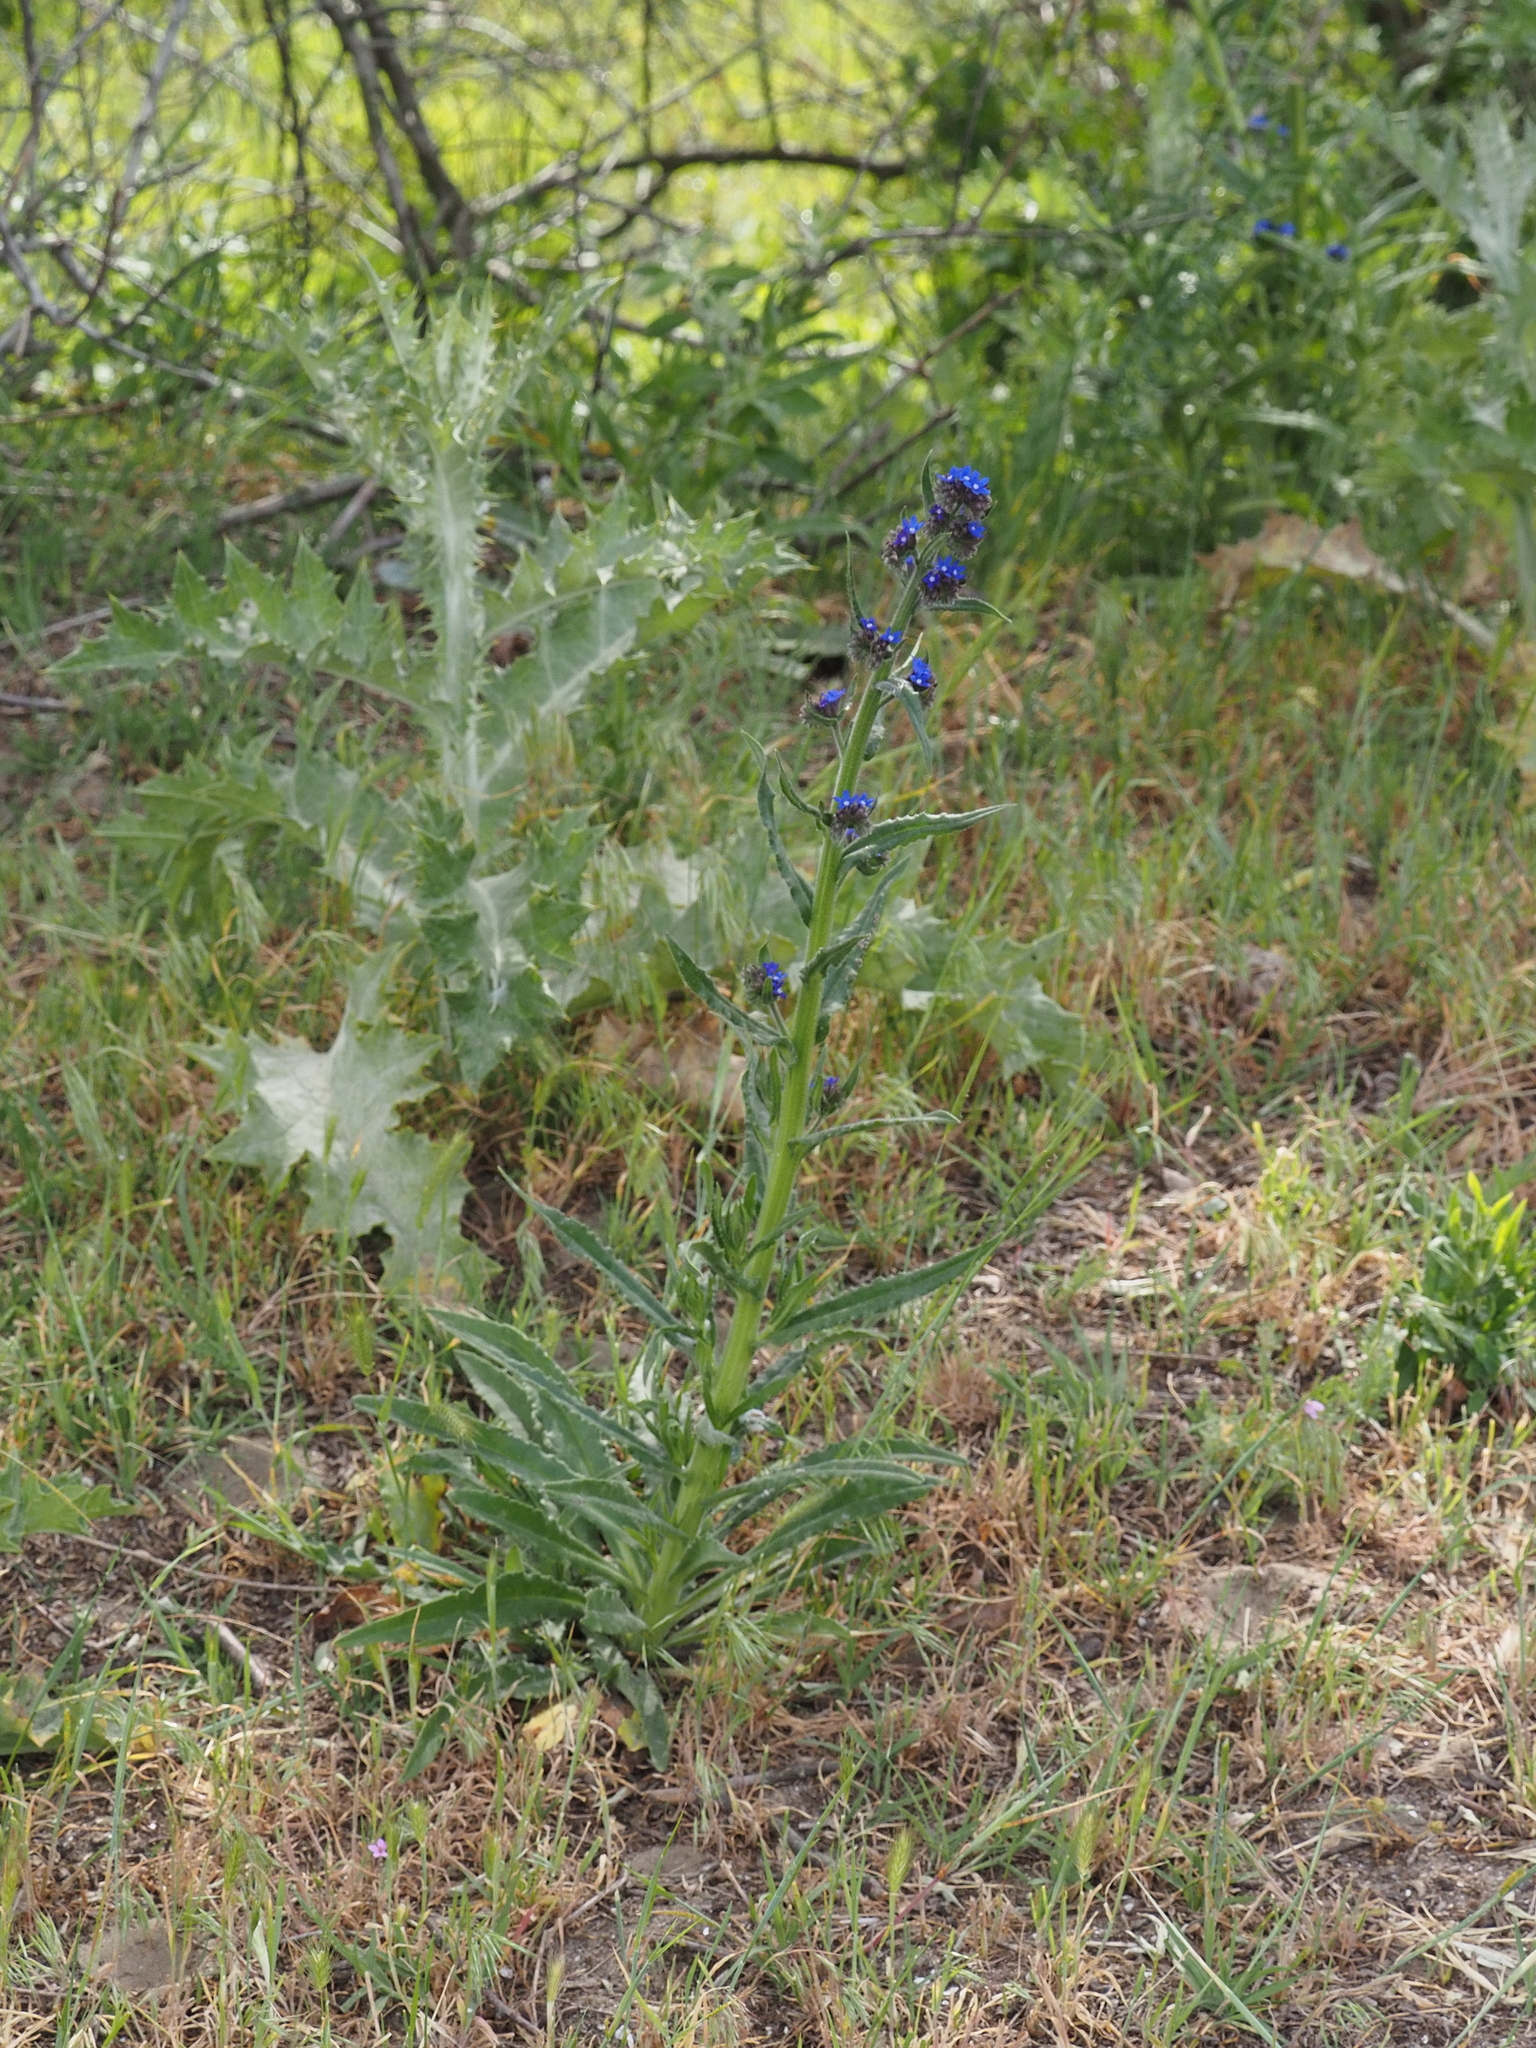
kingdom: Plantae
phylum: Tracheophyta
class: Magnoliopsida
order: Boraginales
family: Boraginaceae
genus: Anchusa
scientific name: Anchusa officinalis
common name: Alkanet
